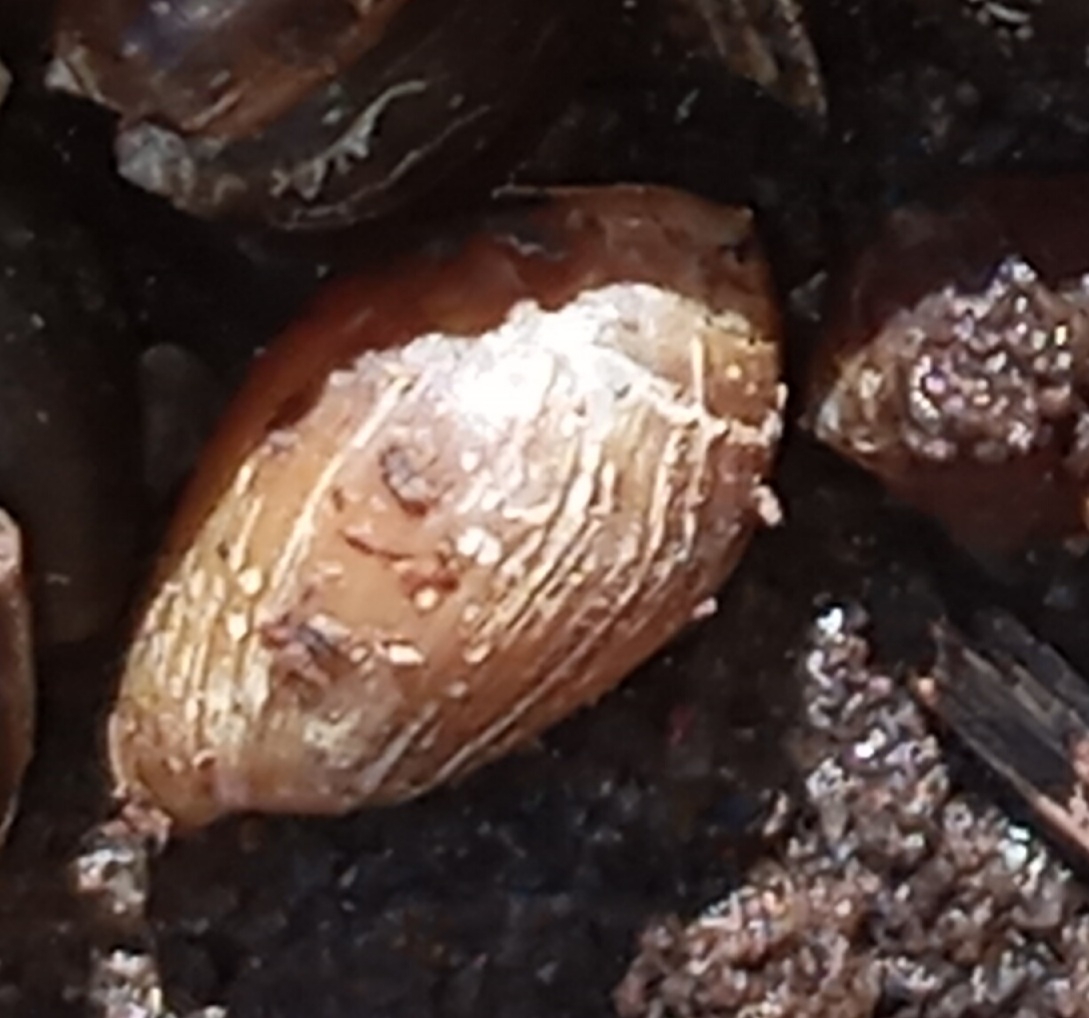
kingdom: Animalia
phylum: Mollusca
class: Gastropoda
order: Ellobiida
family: Ellobiidae
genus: Melampus
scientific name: Melampus bidentatus
